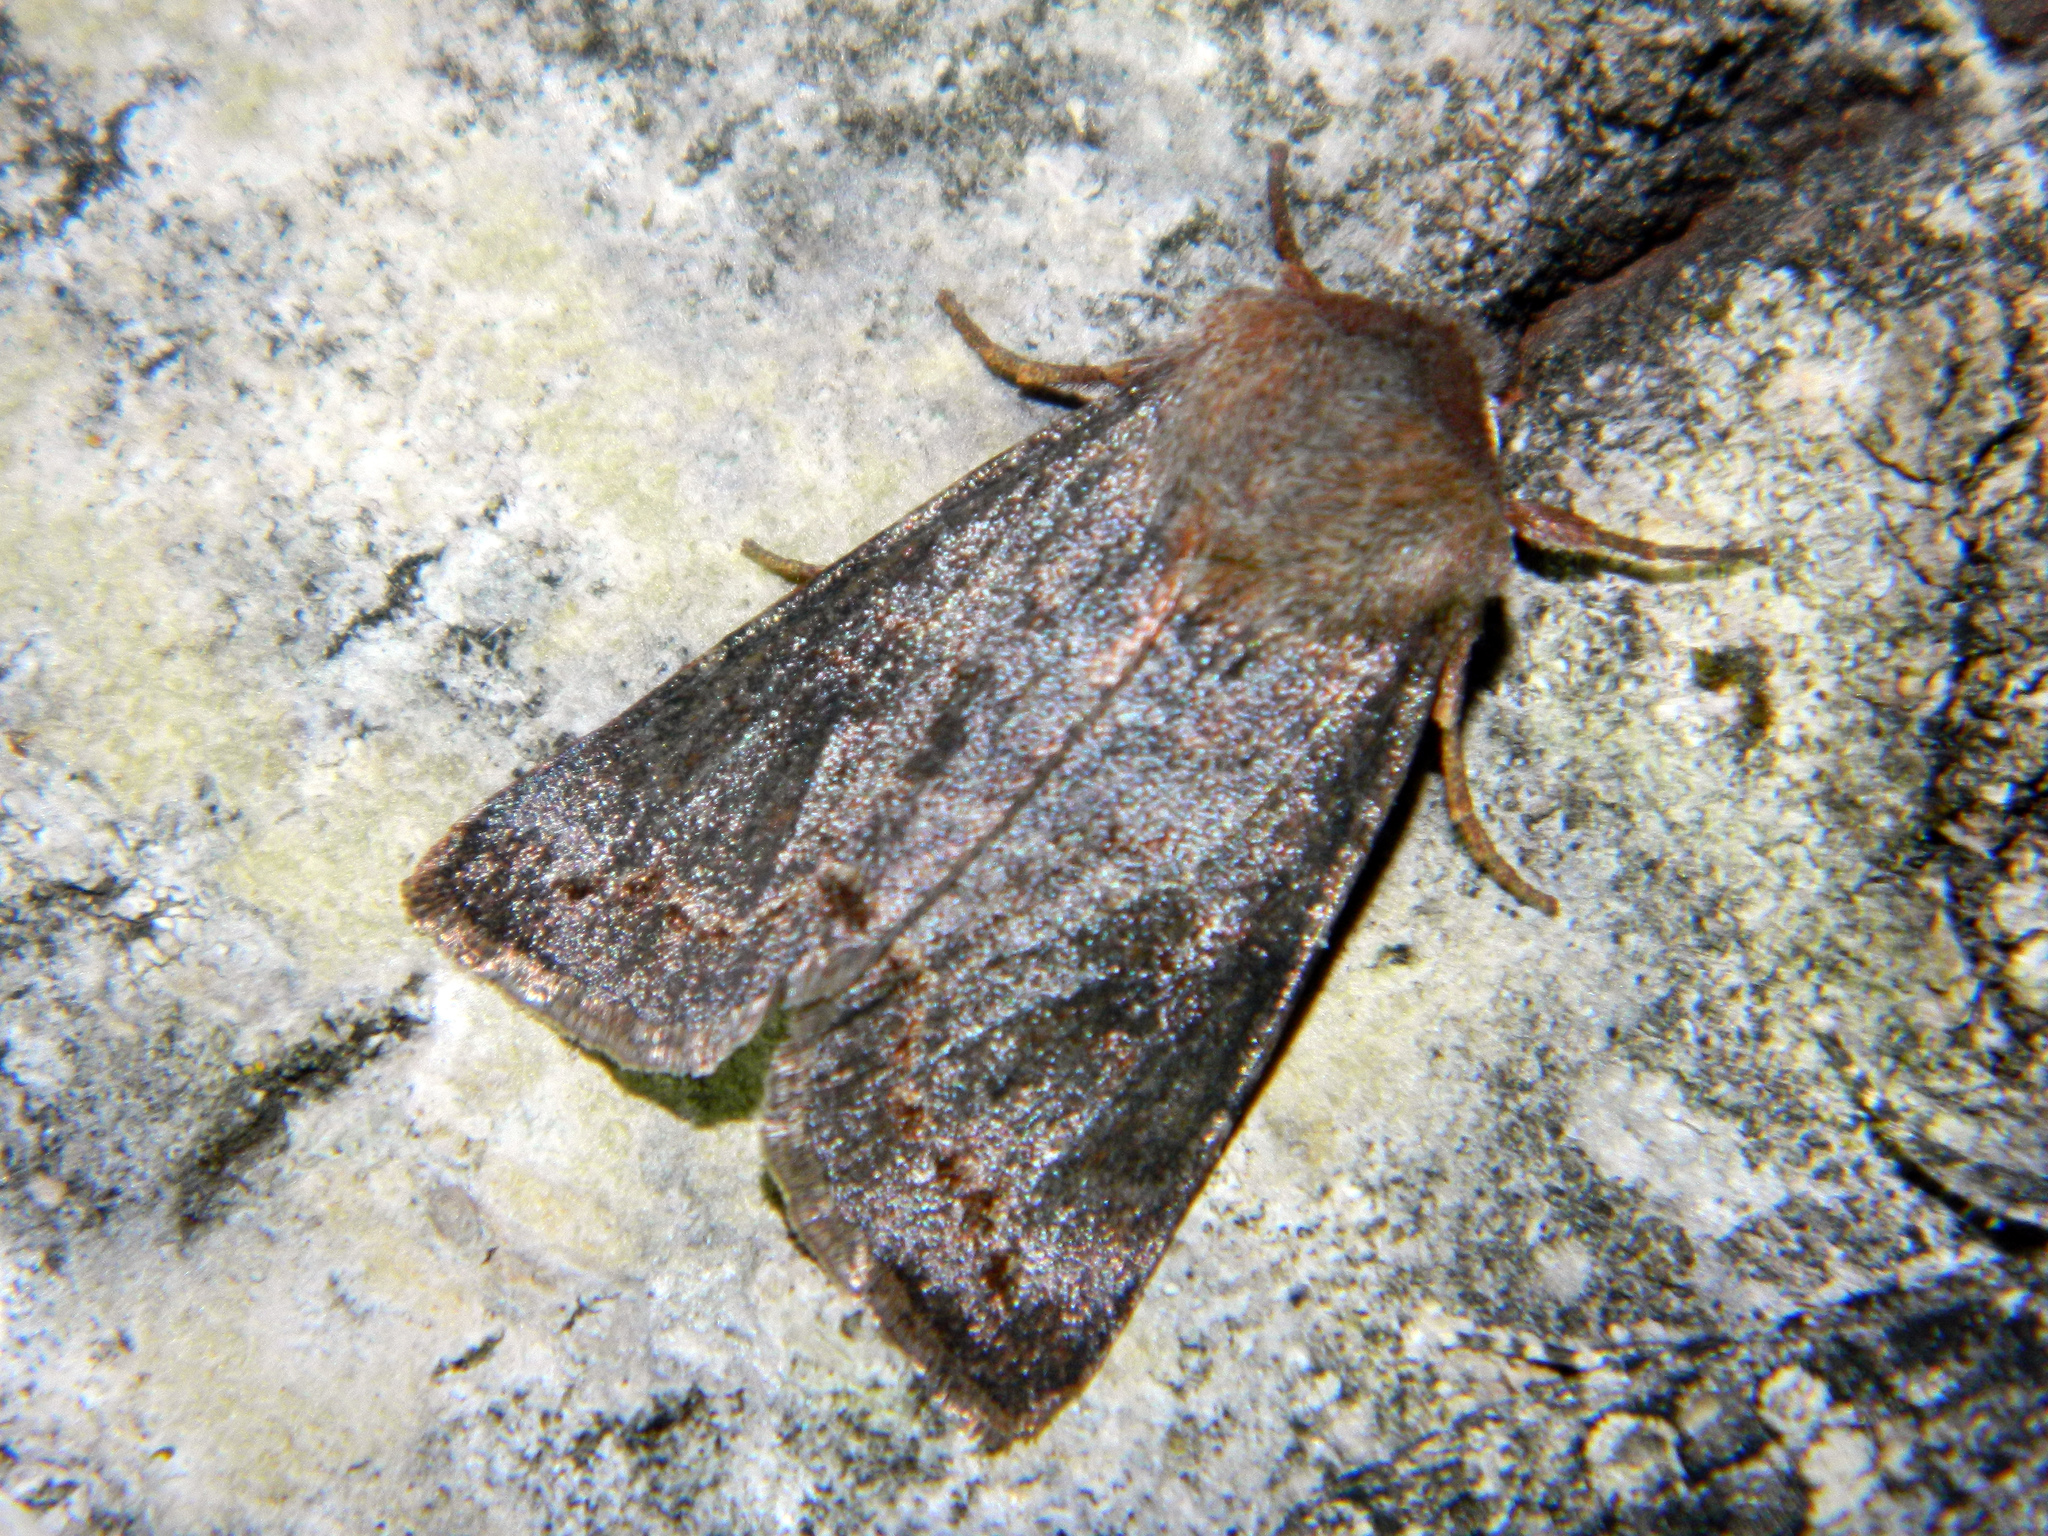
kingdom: Animalia
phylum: Arthropoda
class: Insecta
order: Lepidoptera
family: Noctuidae
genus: Orthosia
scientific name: Orthosia revicta
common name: Rusty whitesided caterpillar
